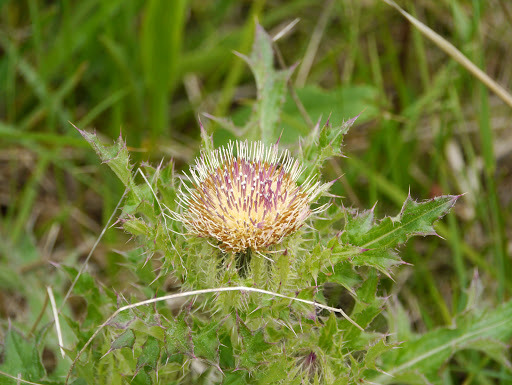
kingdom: Plantae
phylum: Tracheophyta
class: Magnoliopsida
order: Asterales
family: Asteraceae
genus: Cirsium
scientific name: Cirsium horridulum
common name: Bristly thistle
